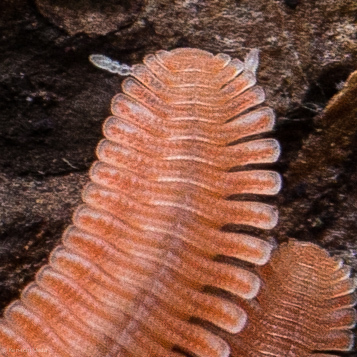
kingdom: Animalia
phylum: Arthropoda
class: Diplopoda
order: Platydesmida
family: Andrognathidae
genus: Brachycybe
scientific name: Brachycybe rosea
